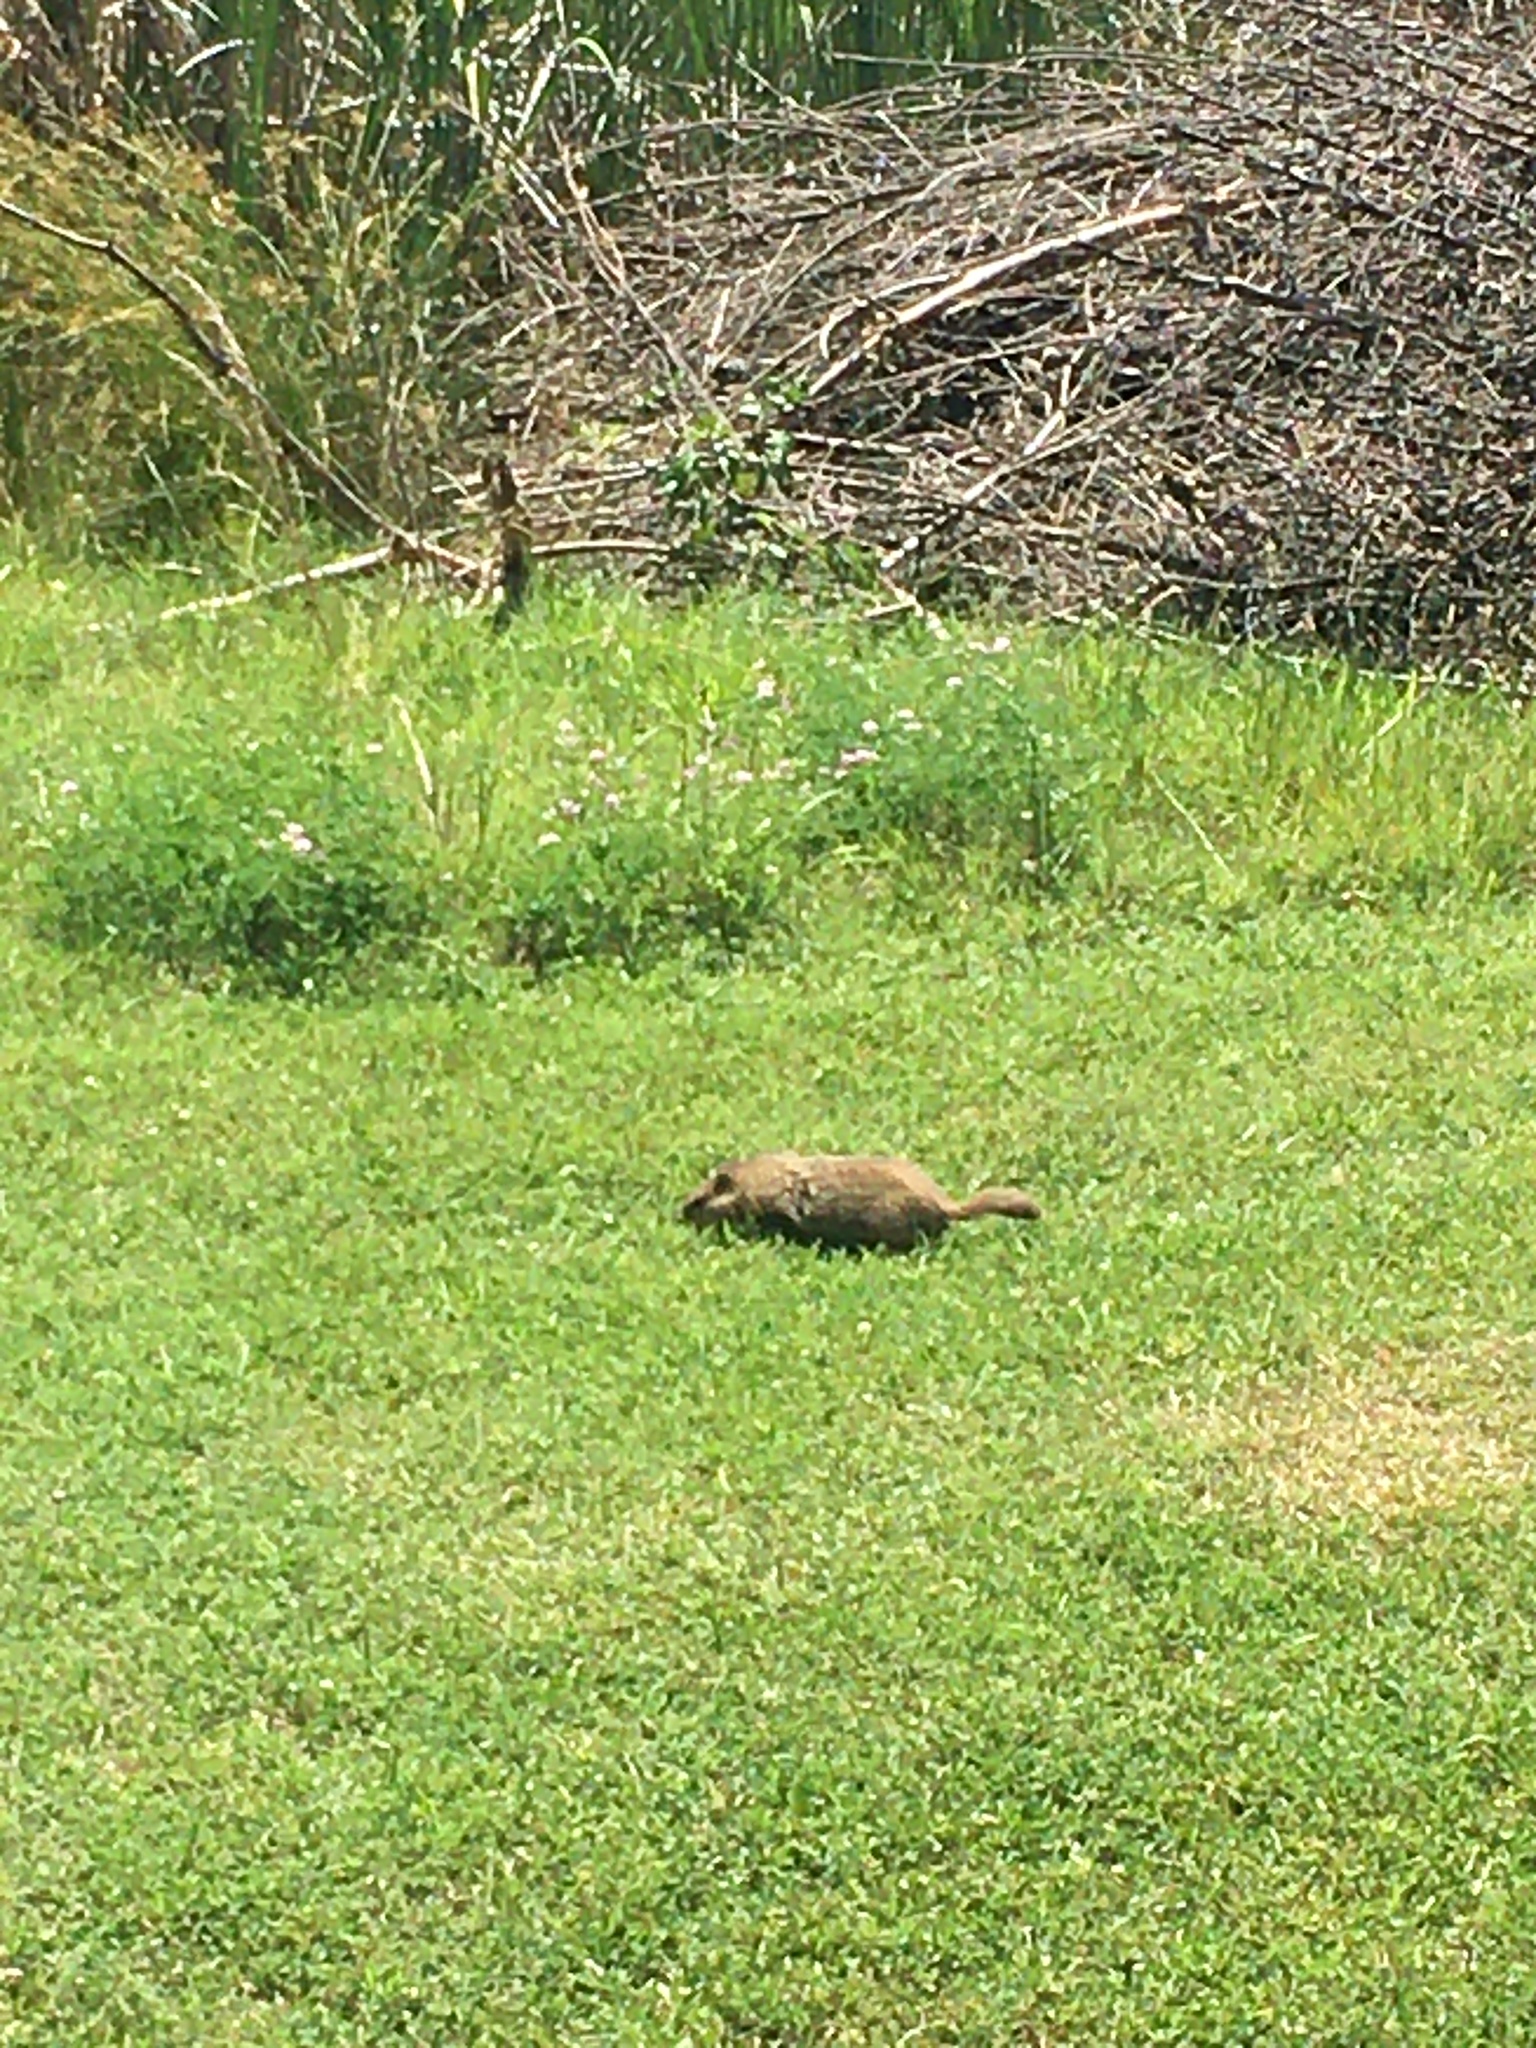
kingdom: Animalia
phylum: Chordata
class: Mammalia
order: Rodentia
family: Sciuridae
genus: Marmota
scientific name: Marmota monax
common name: Groundhog
